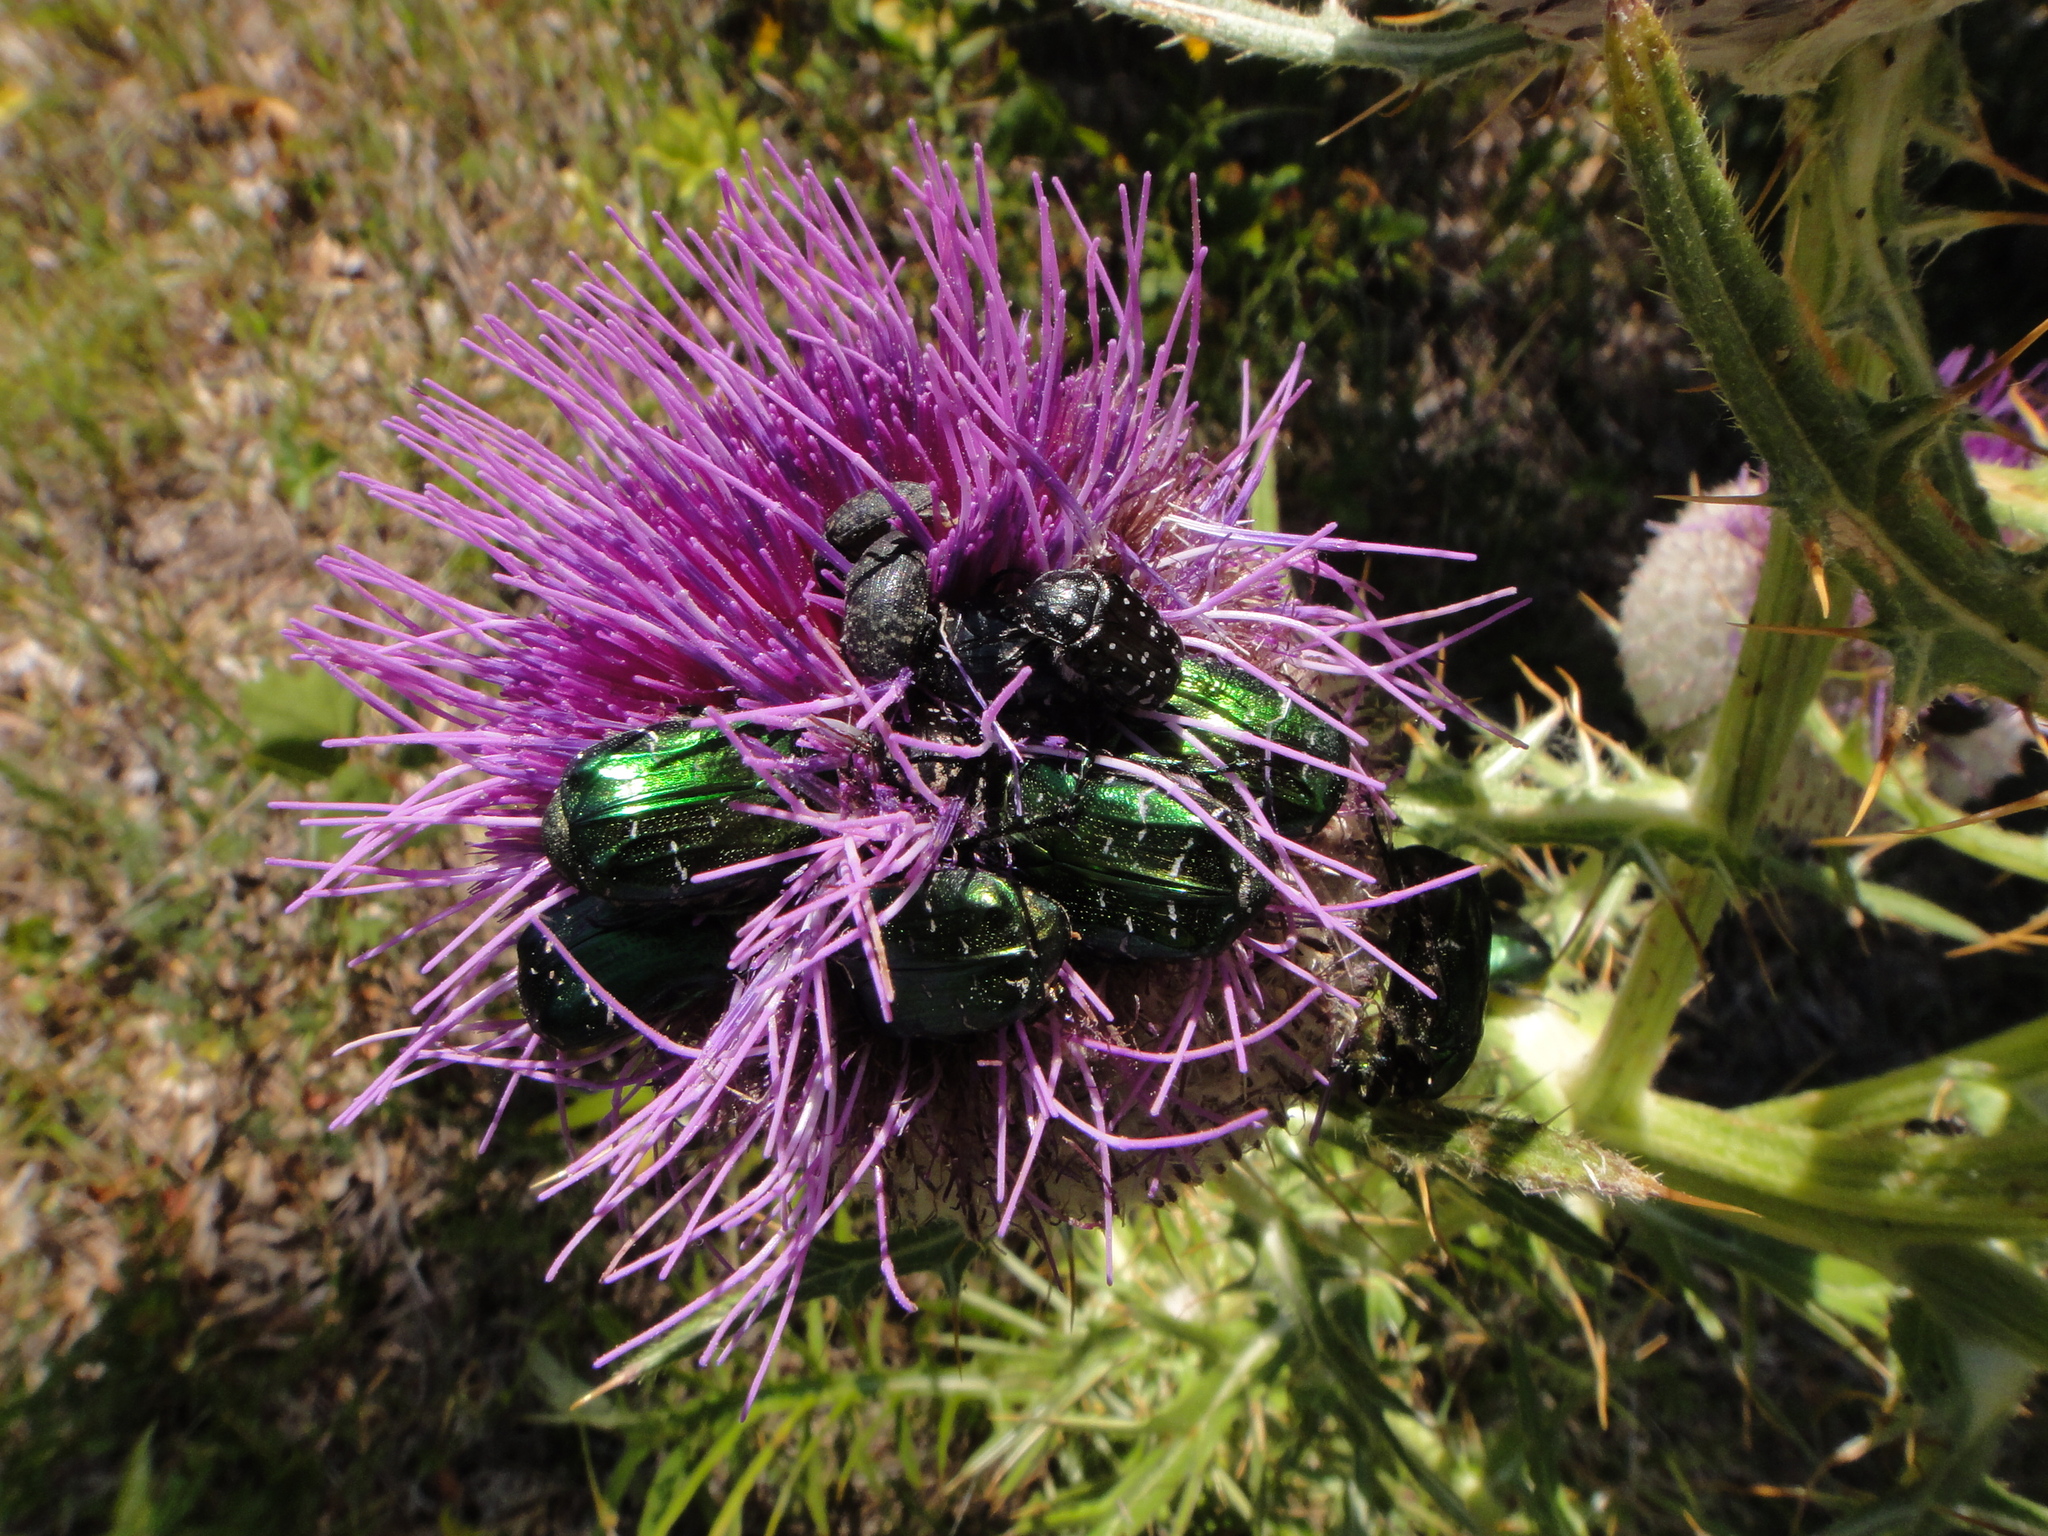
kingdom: Plantae
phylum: Tracheophyta
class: Magnoliopsida
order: Asterales
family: Asteraceae
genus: Lophiolepis
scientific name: Lophiolepis eriophora
